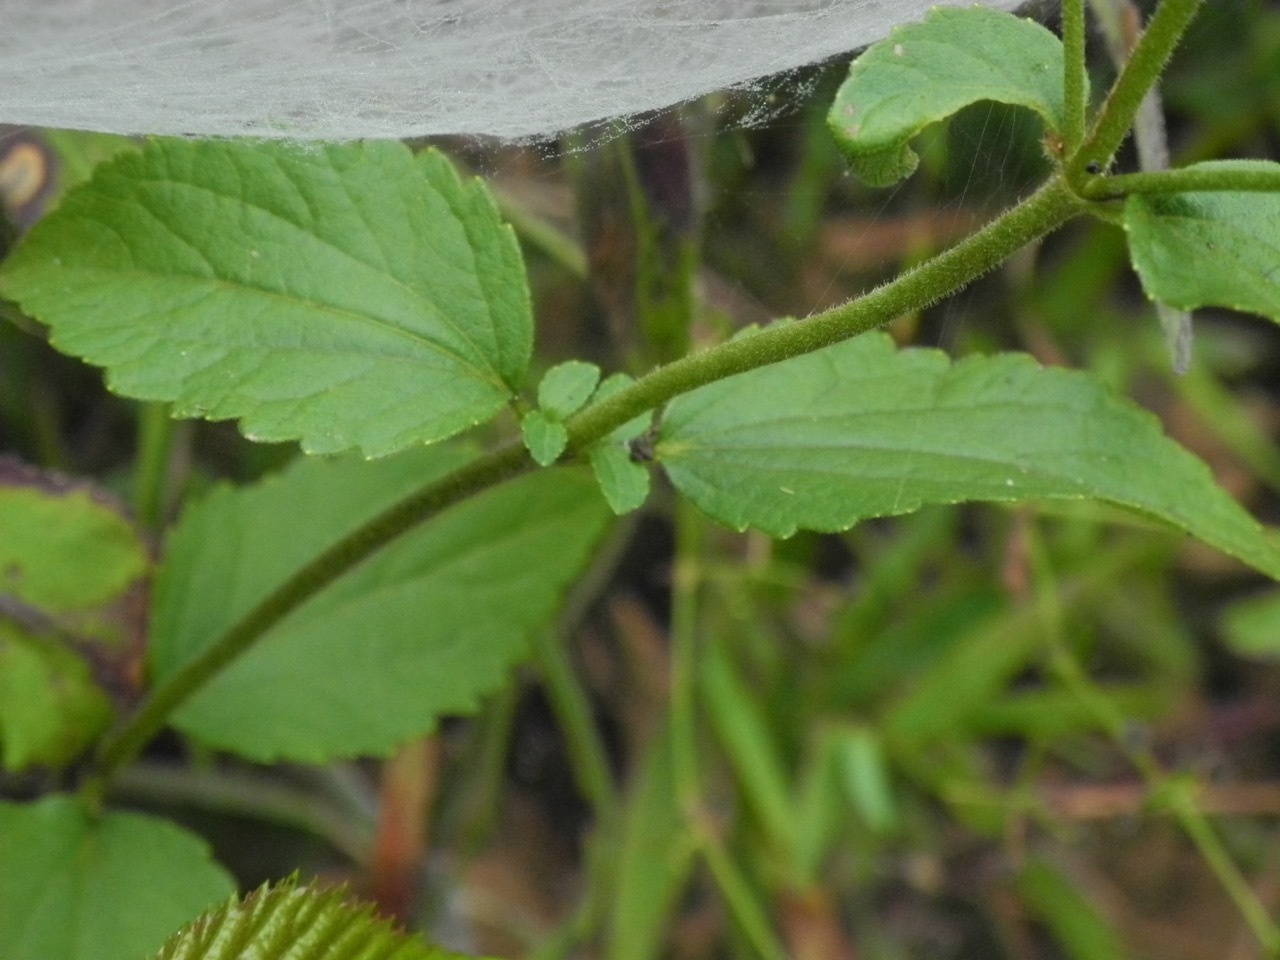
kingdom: Plantae
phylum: Tracheophyta
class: Magnoliopsida
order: Asterales
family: Asteraceae
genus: Ageratina
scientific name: Ageratina aromatica
